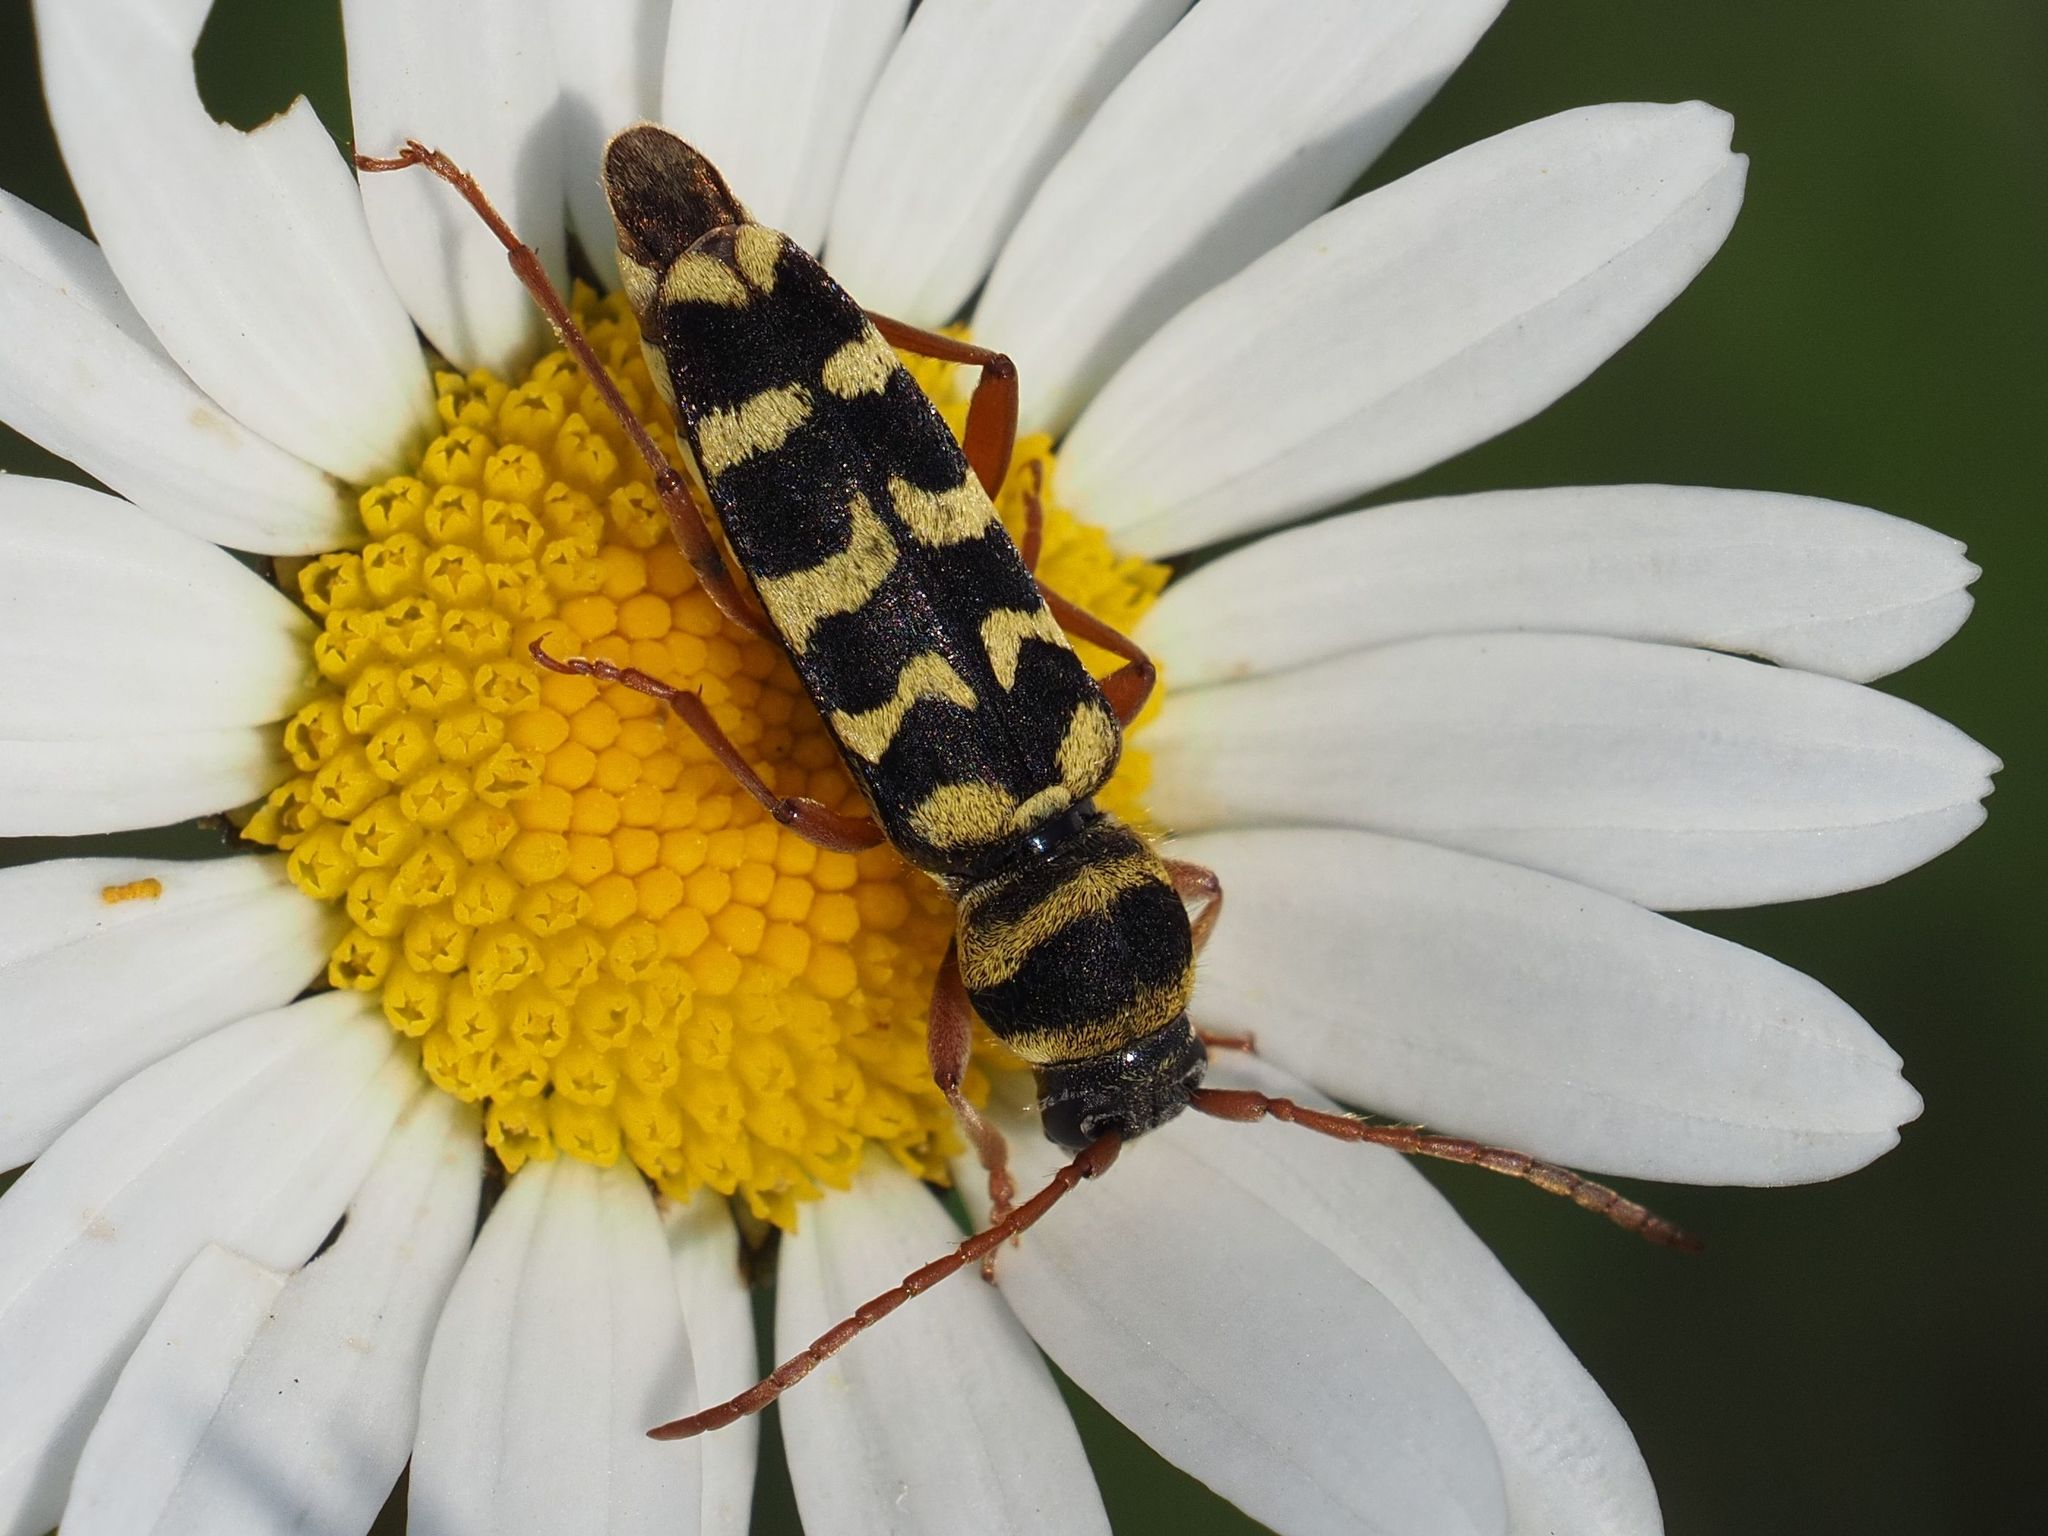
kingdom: Animalia
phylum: Arthropoda
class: Insecta
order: Coleoptera
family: Cerambycidae
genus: Plagionotus
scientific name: Plagionotus floralis
